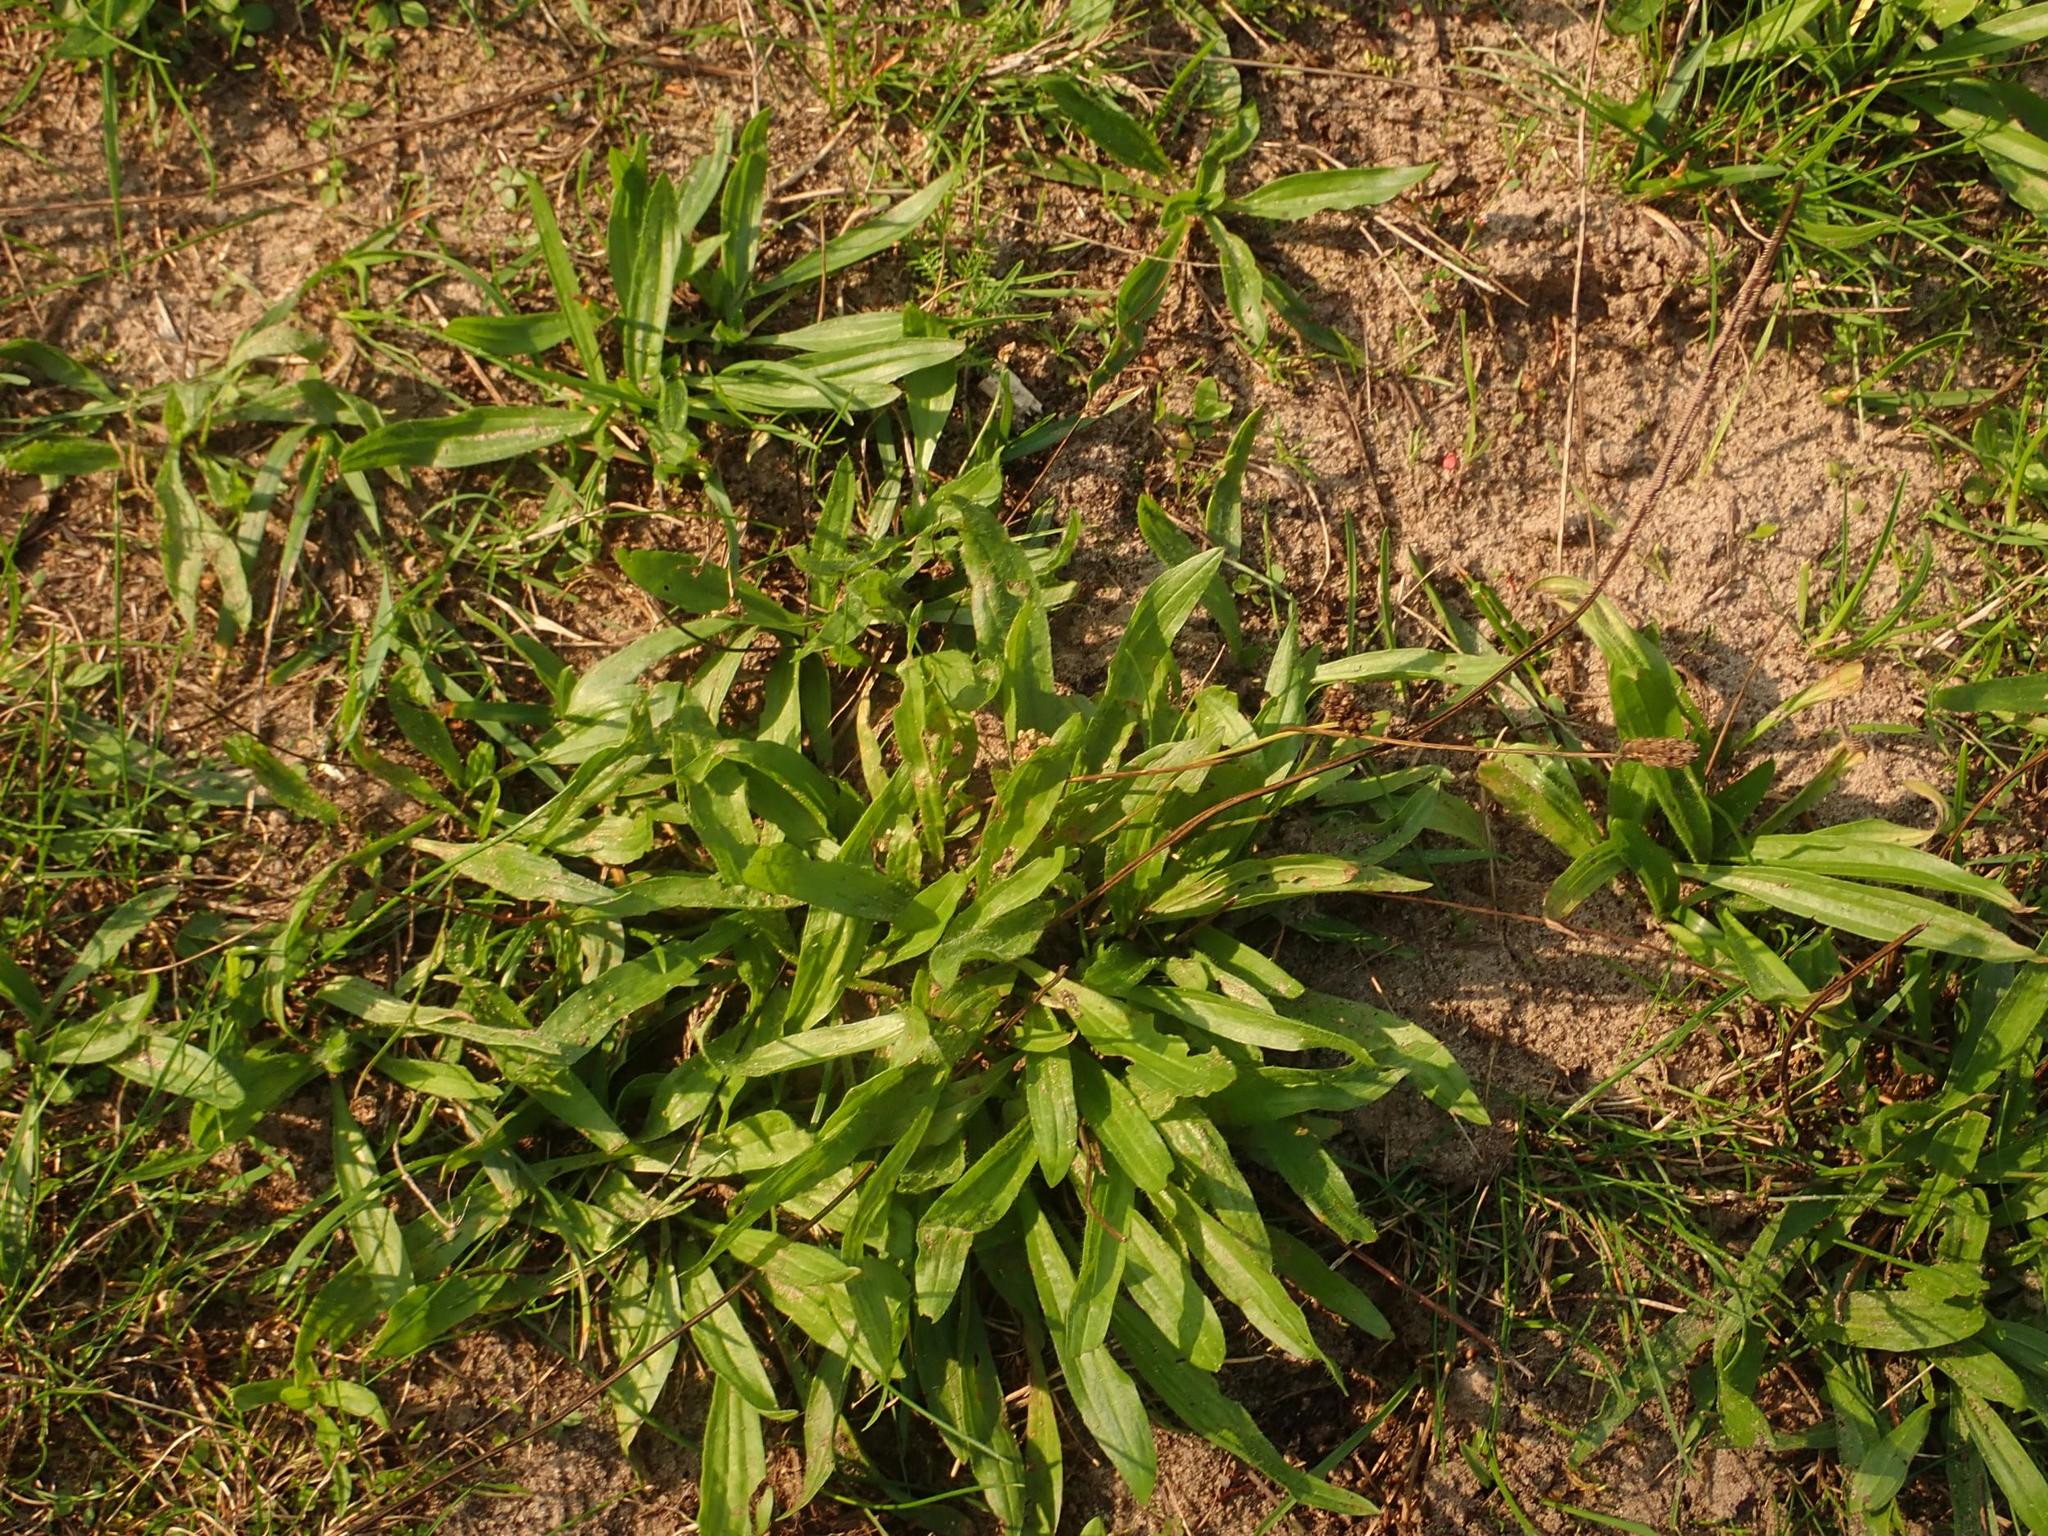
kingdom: Plantae
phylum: Tracheophyta
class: Magnoliopsida
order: Lamiales
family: Plantaginaceae
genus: Plantago
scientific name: Plantago lanceolata
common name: Ribwort plantain
